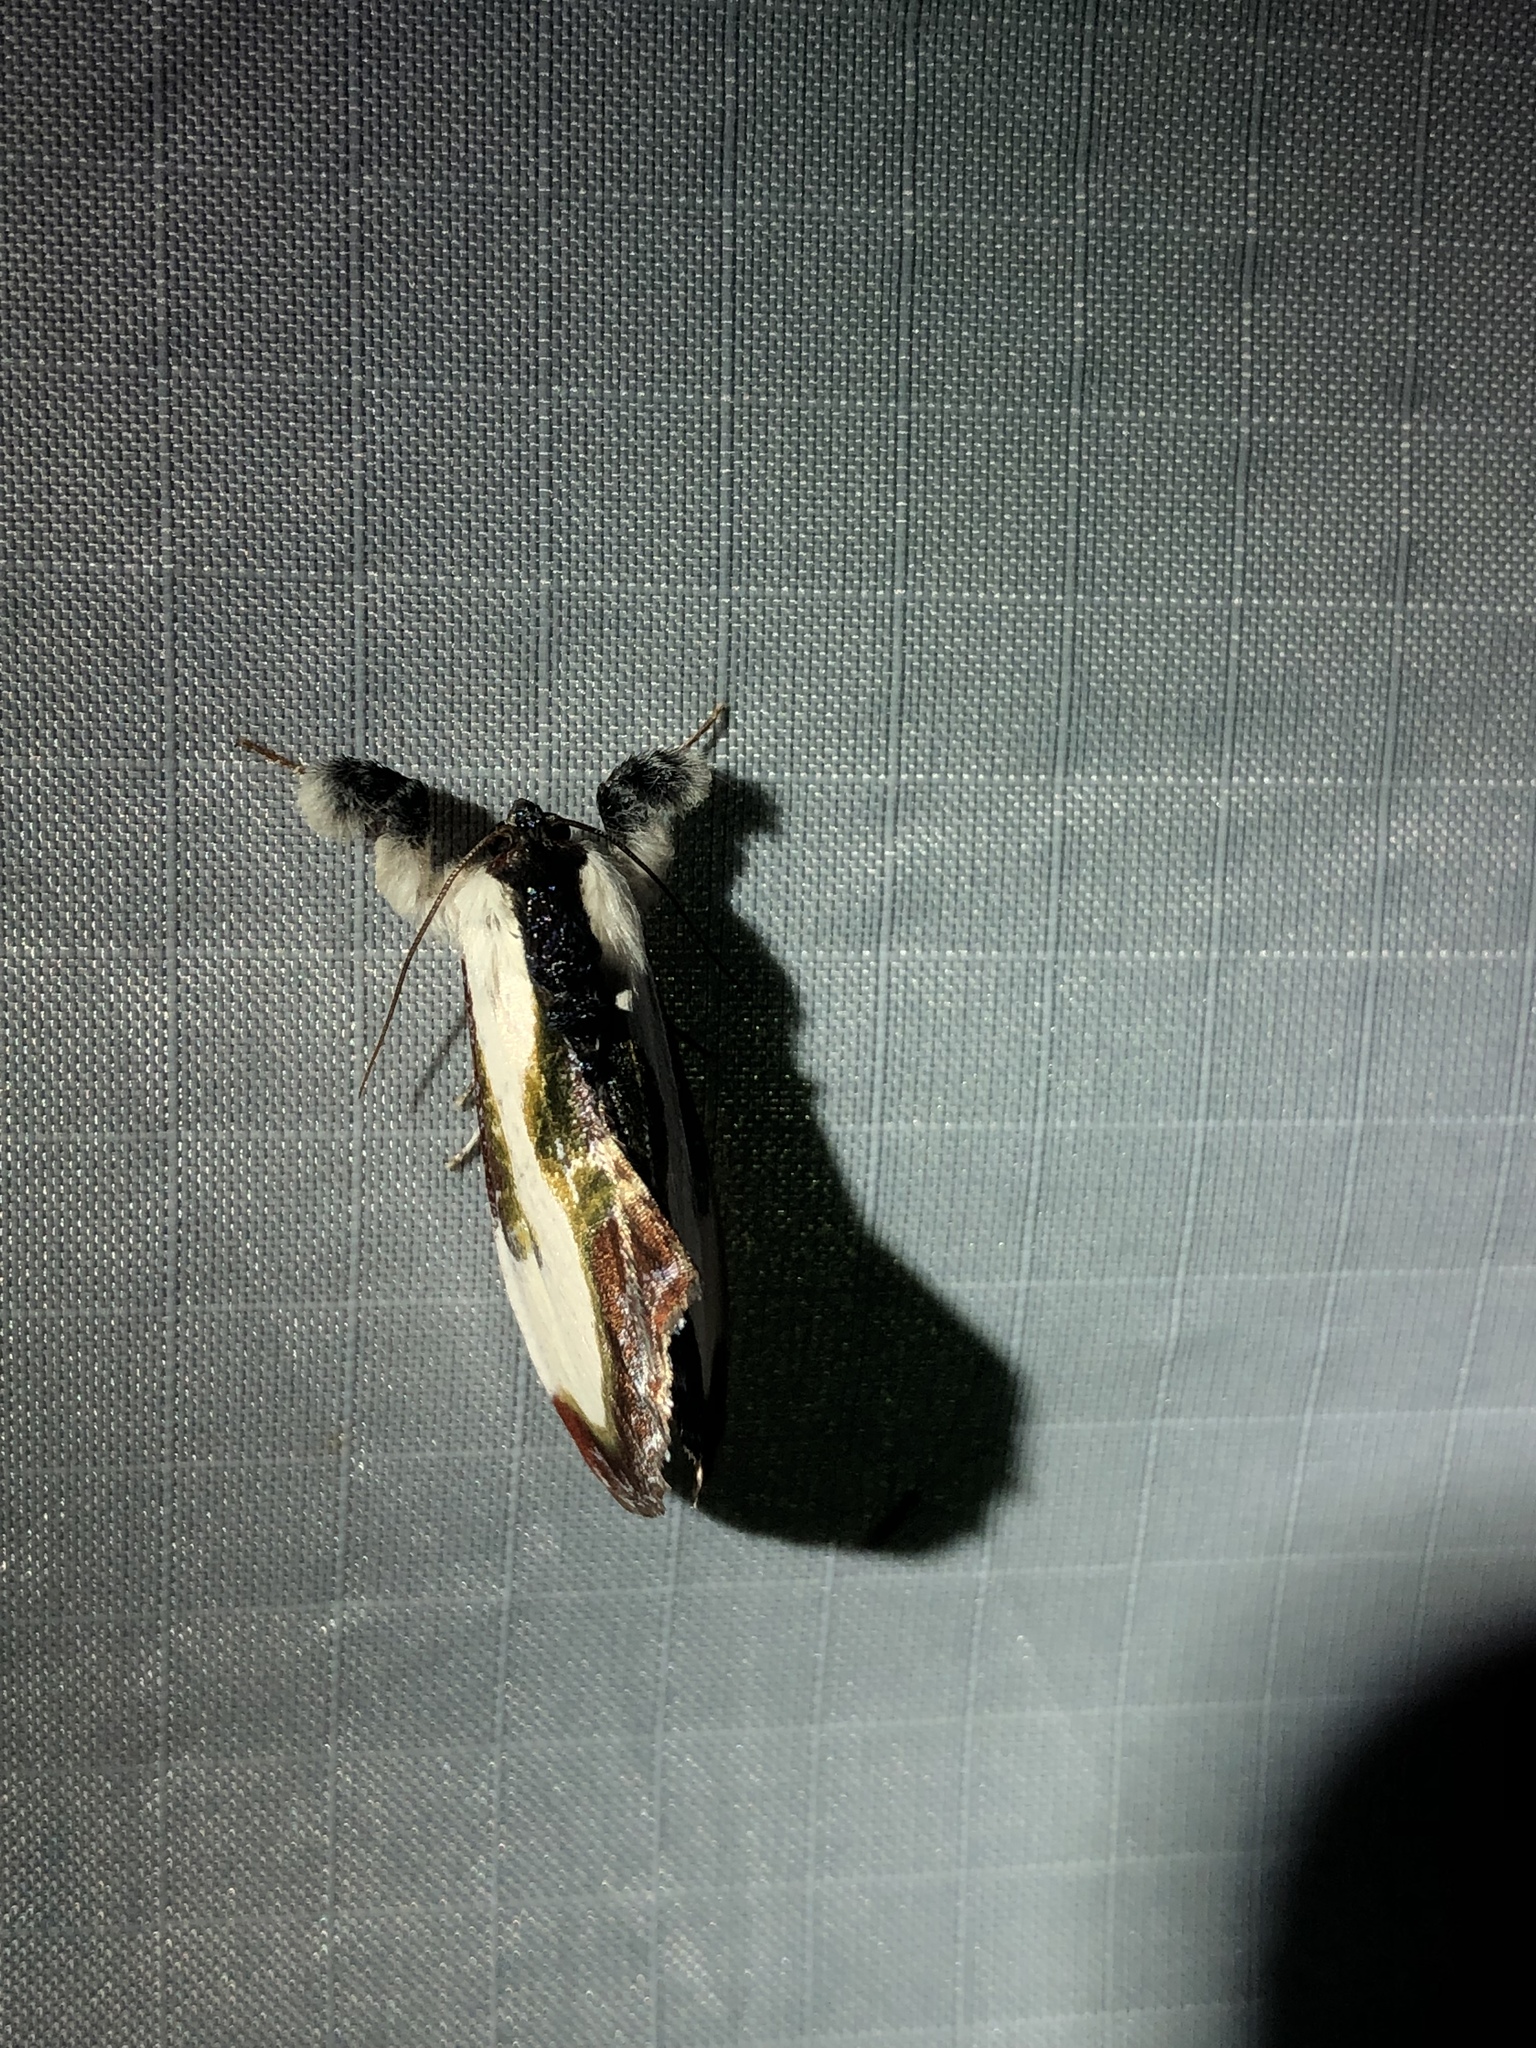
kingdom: Animalia
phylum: Arthropoda
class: Insecta
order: Lepidoptera
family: Noctuidae
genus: Eudryas
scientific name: Eudryas grata
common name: Beautiful wood-nymph
